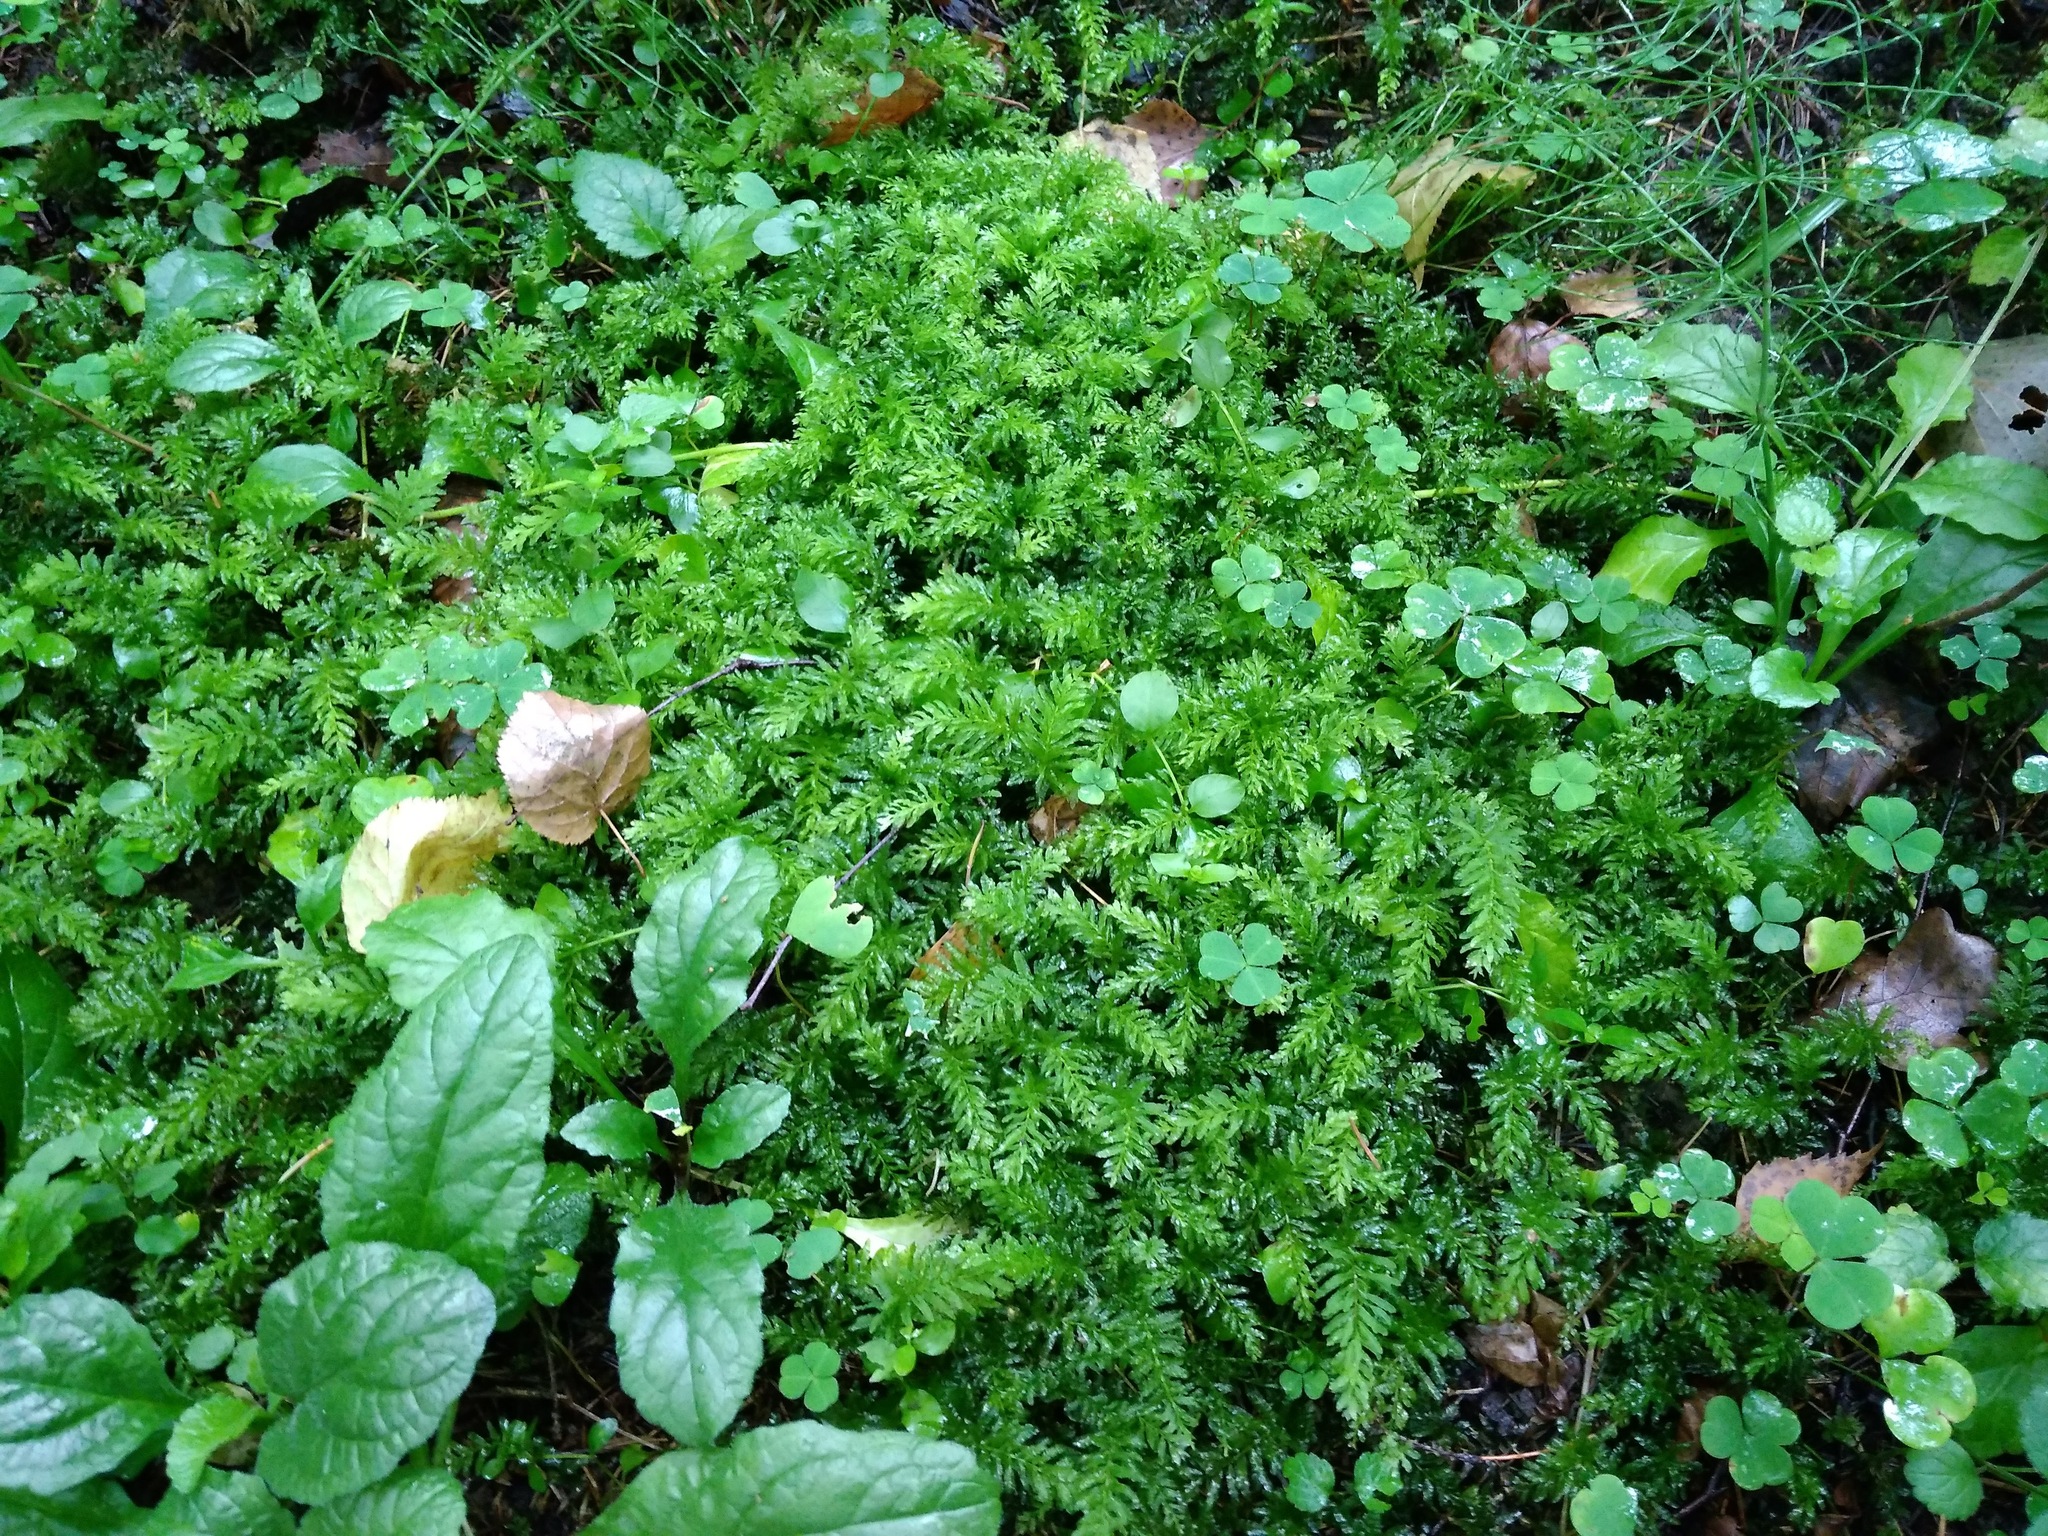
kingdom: Plantae
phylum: Bryophyta
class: Bryopsida
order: Bryales
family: Mniaceae
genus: Plagiomnium
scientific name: Plagiomnium undulatum
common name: Hart's-tongue thyme-moss
